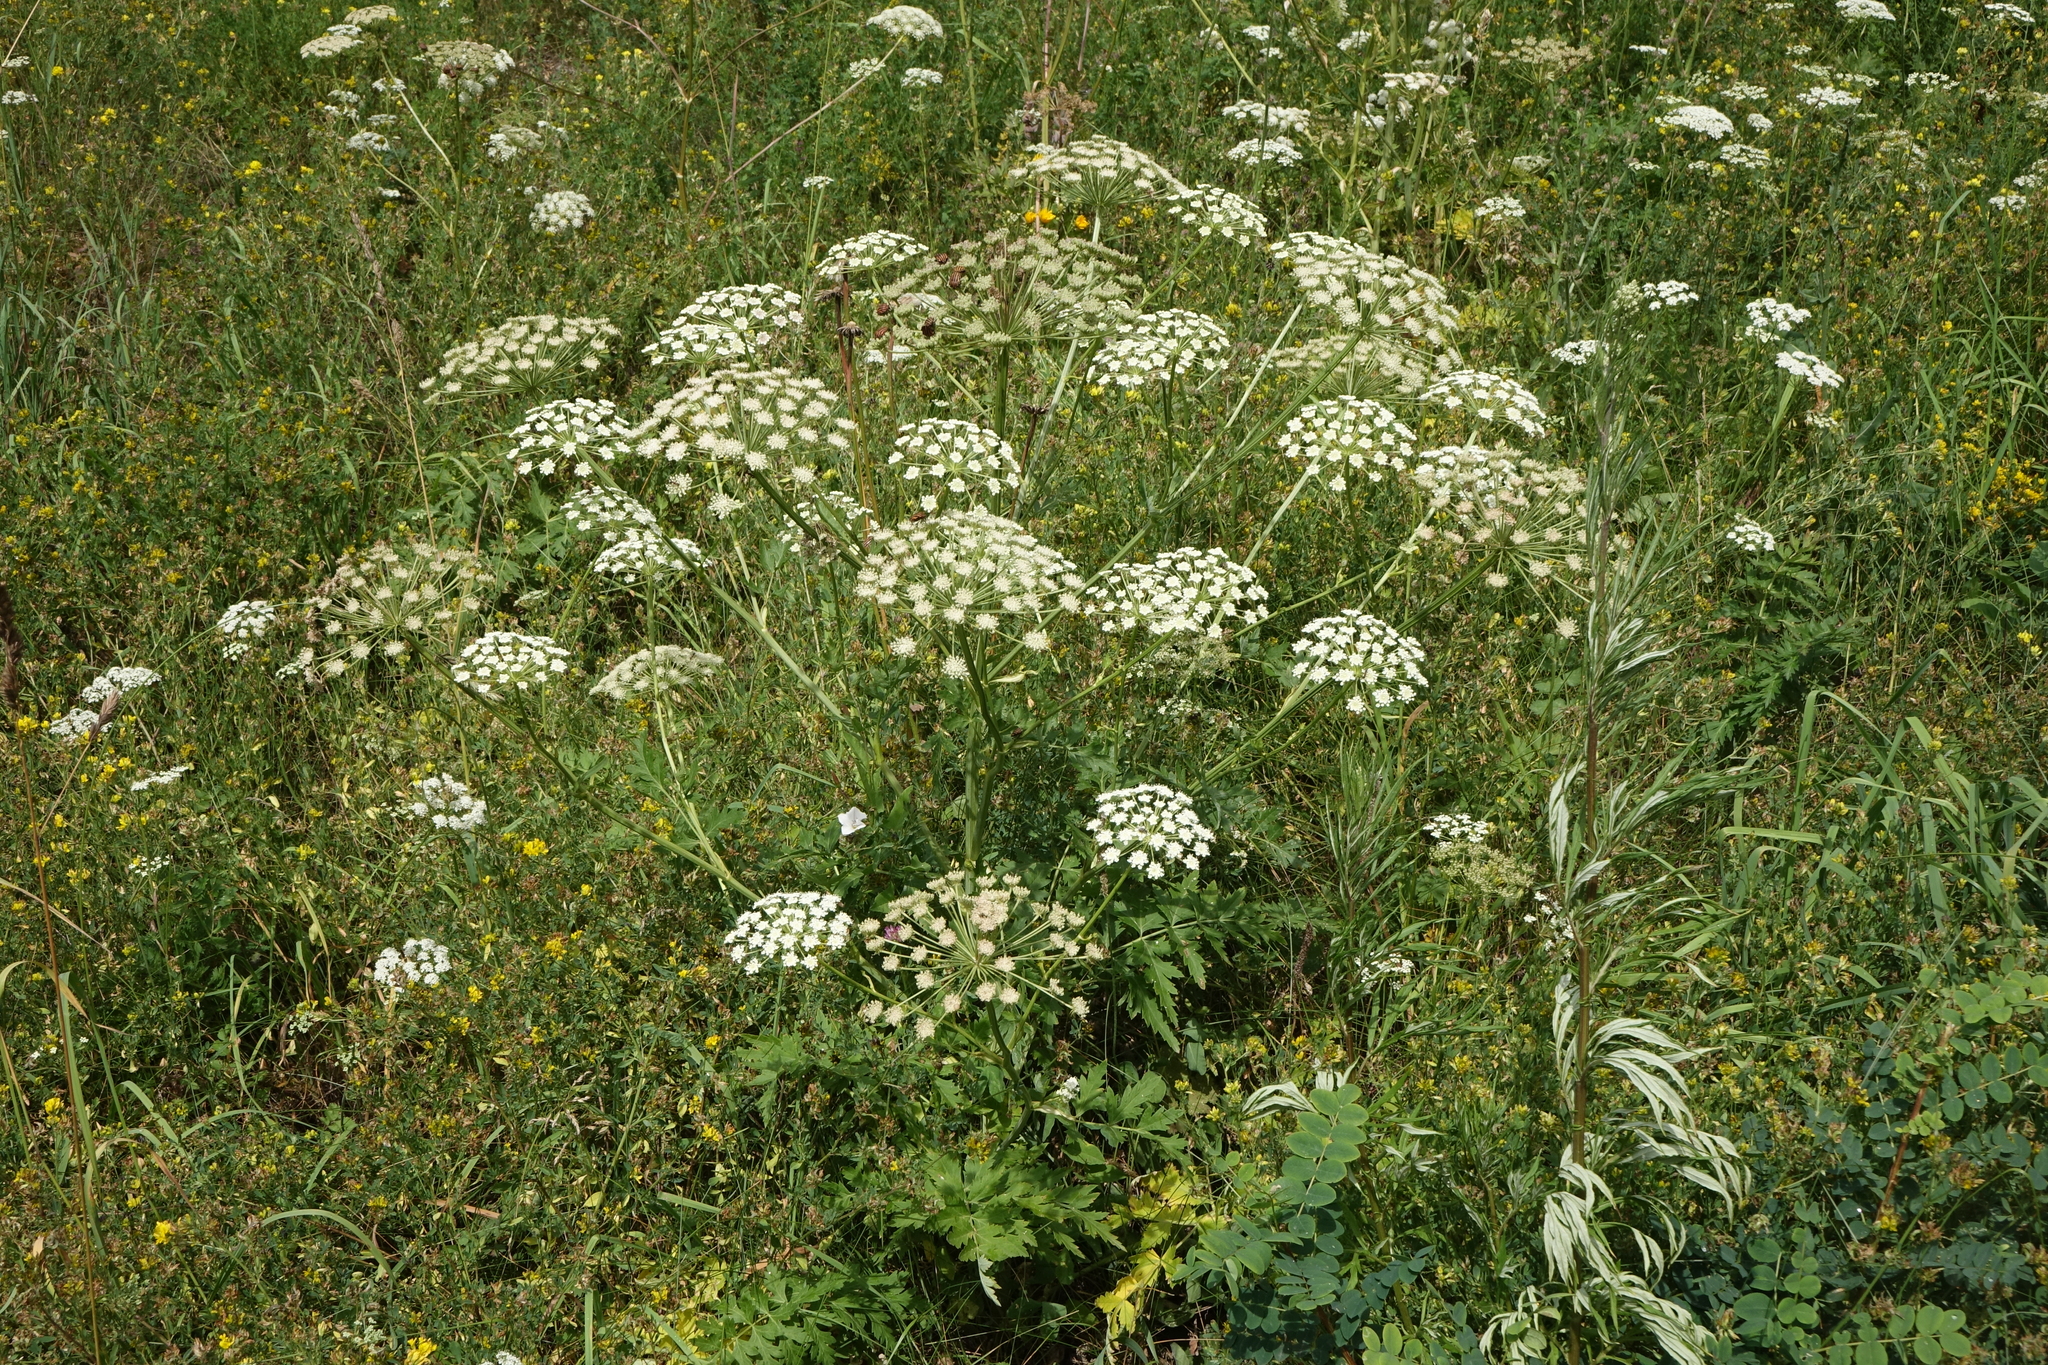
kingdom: Plantae
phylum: Tracheophyta
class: Magnoliopsida
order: Apiales
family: Apiaceae
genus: Seseli
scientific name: Seseli libanotis
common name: Mooncarrot
